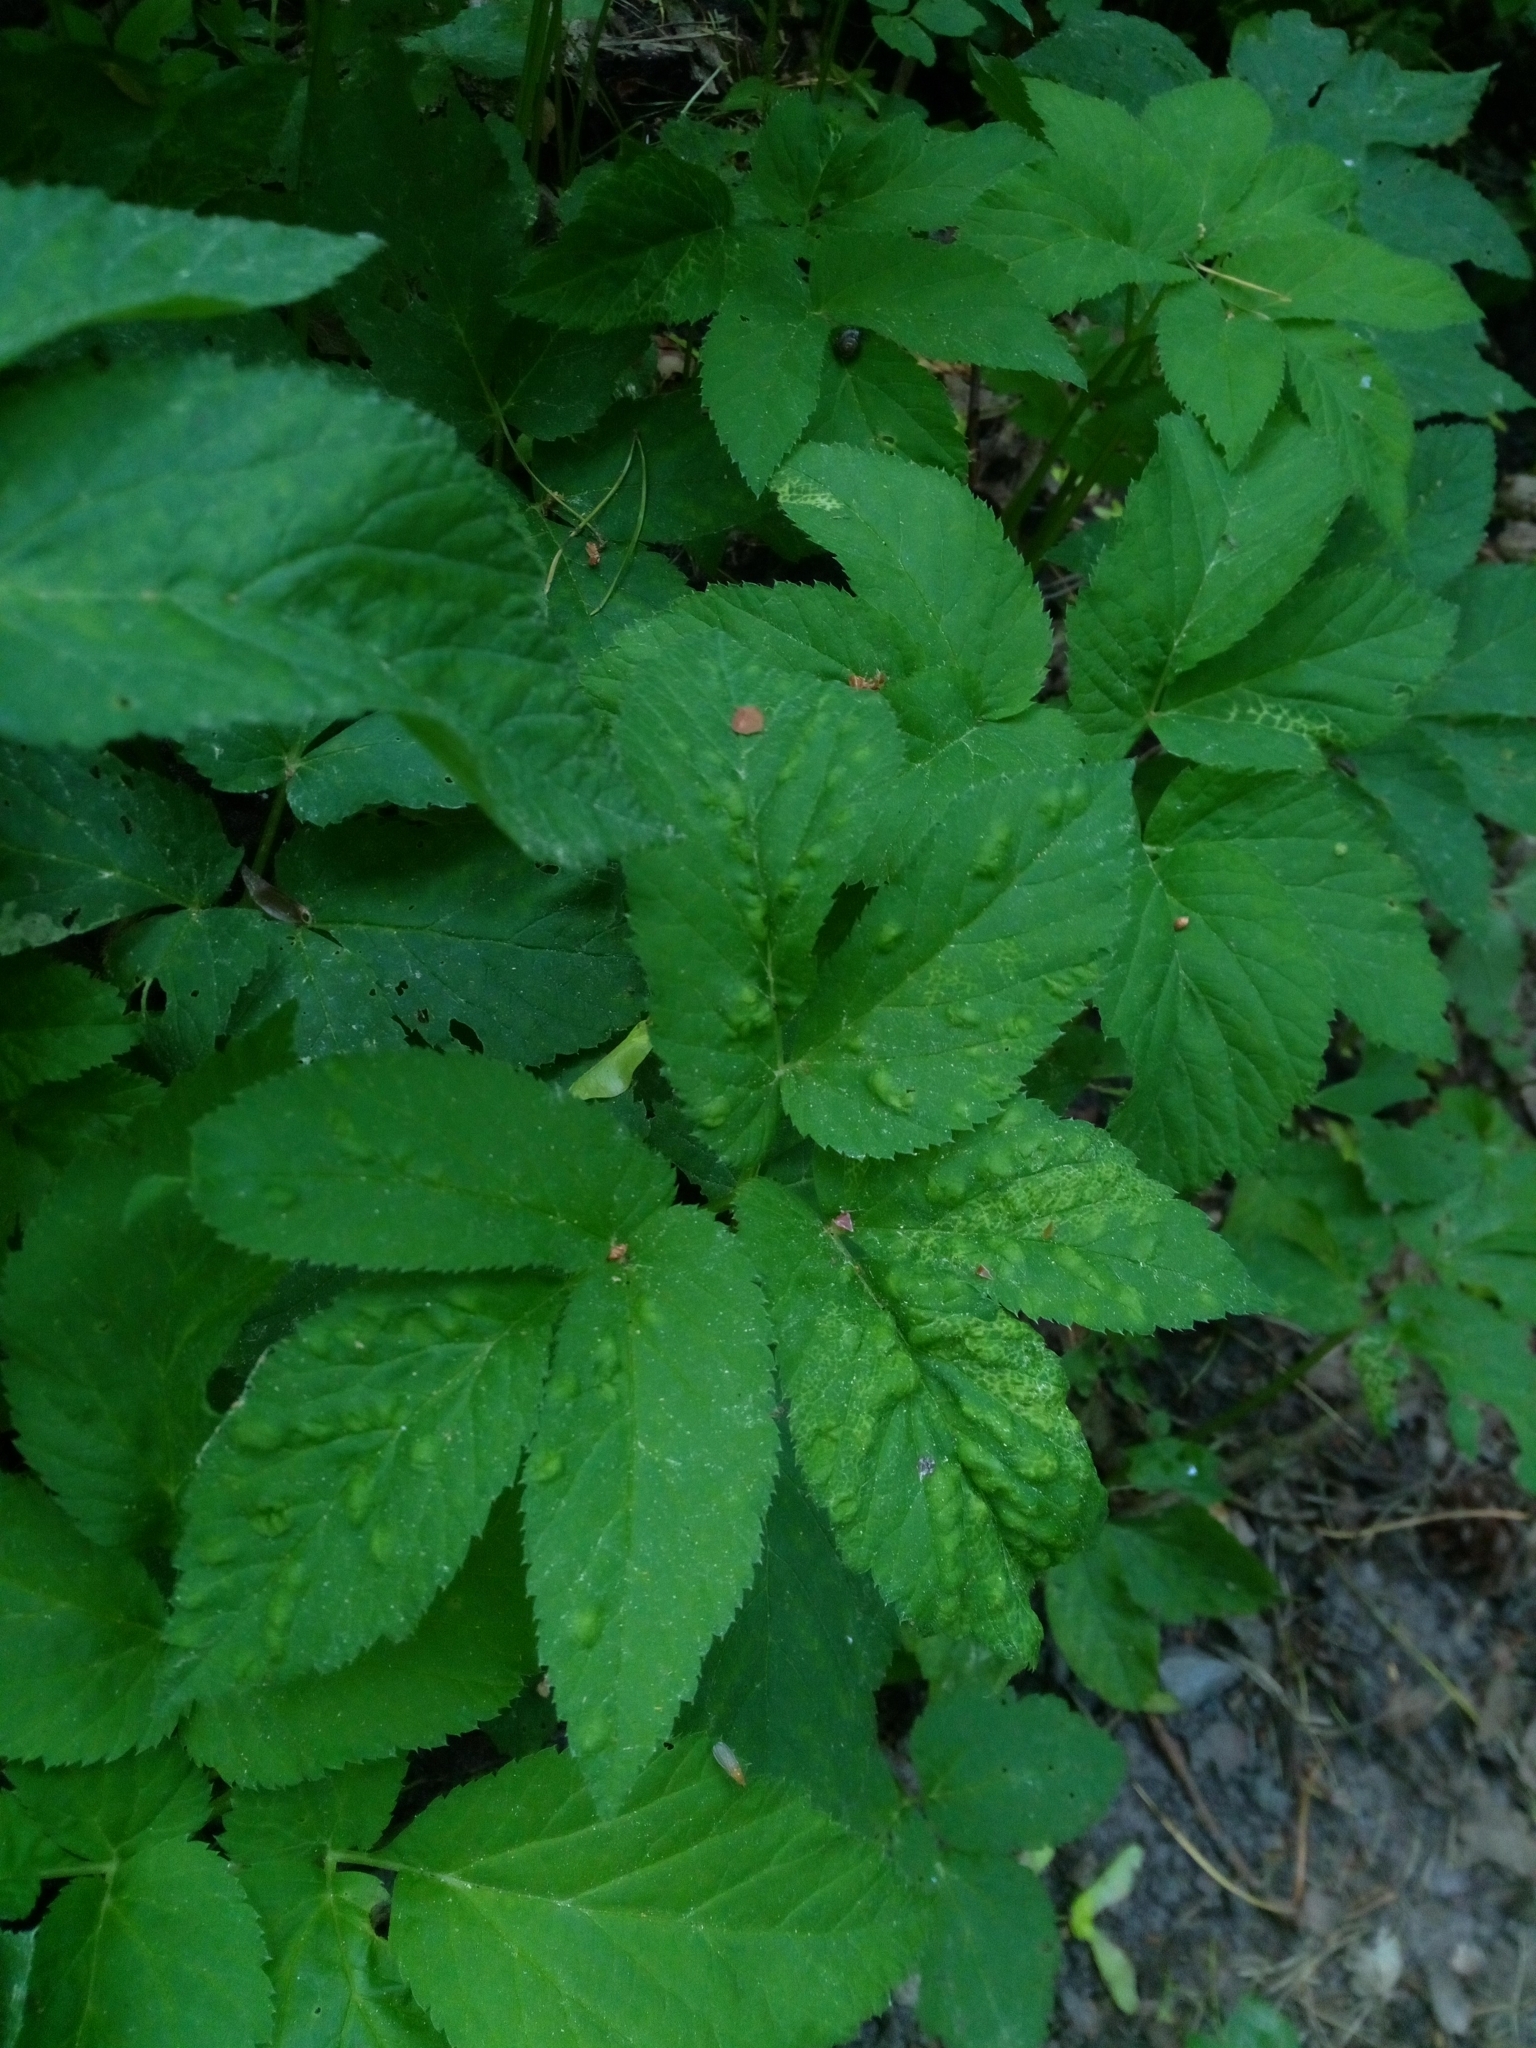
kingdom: Plantae
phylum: Tracheophyta
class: Magnoliopsida
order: Apiales
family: Apiaceae
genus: Aegopodium
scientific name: Aegopodium podagraria
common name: Ground-elder
